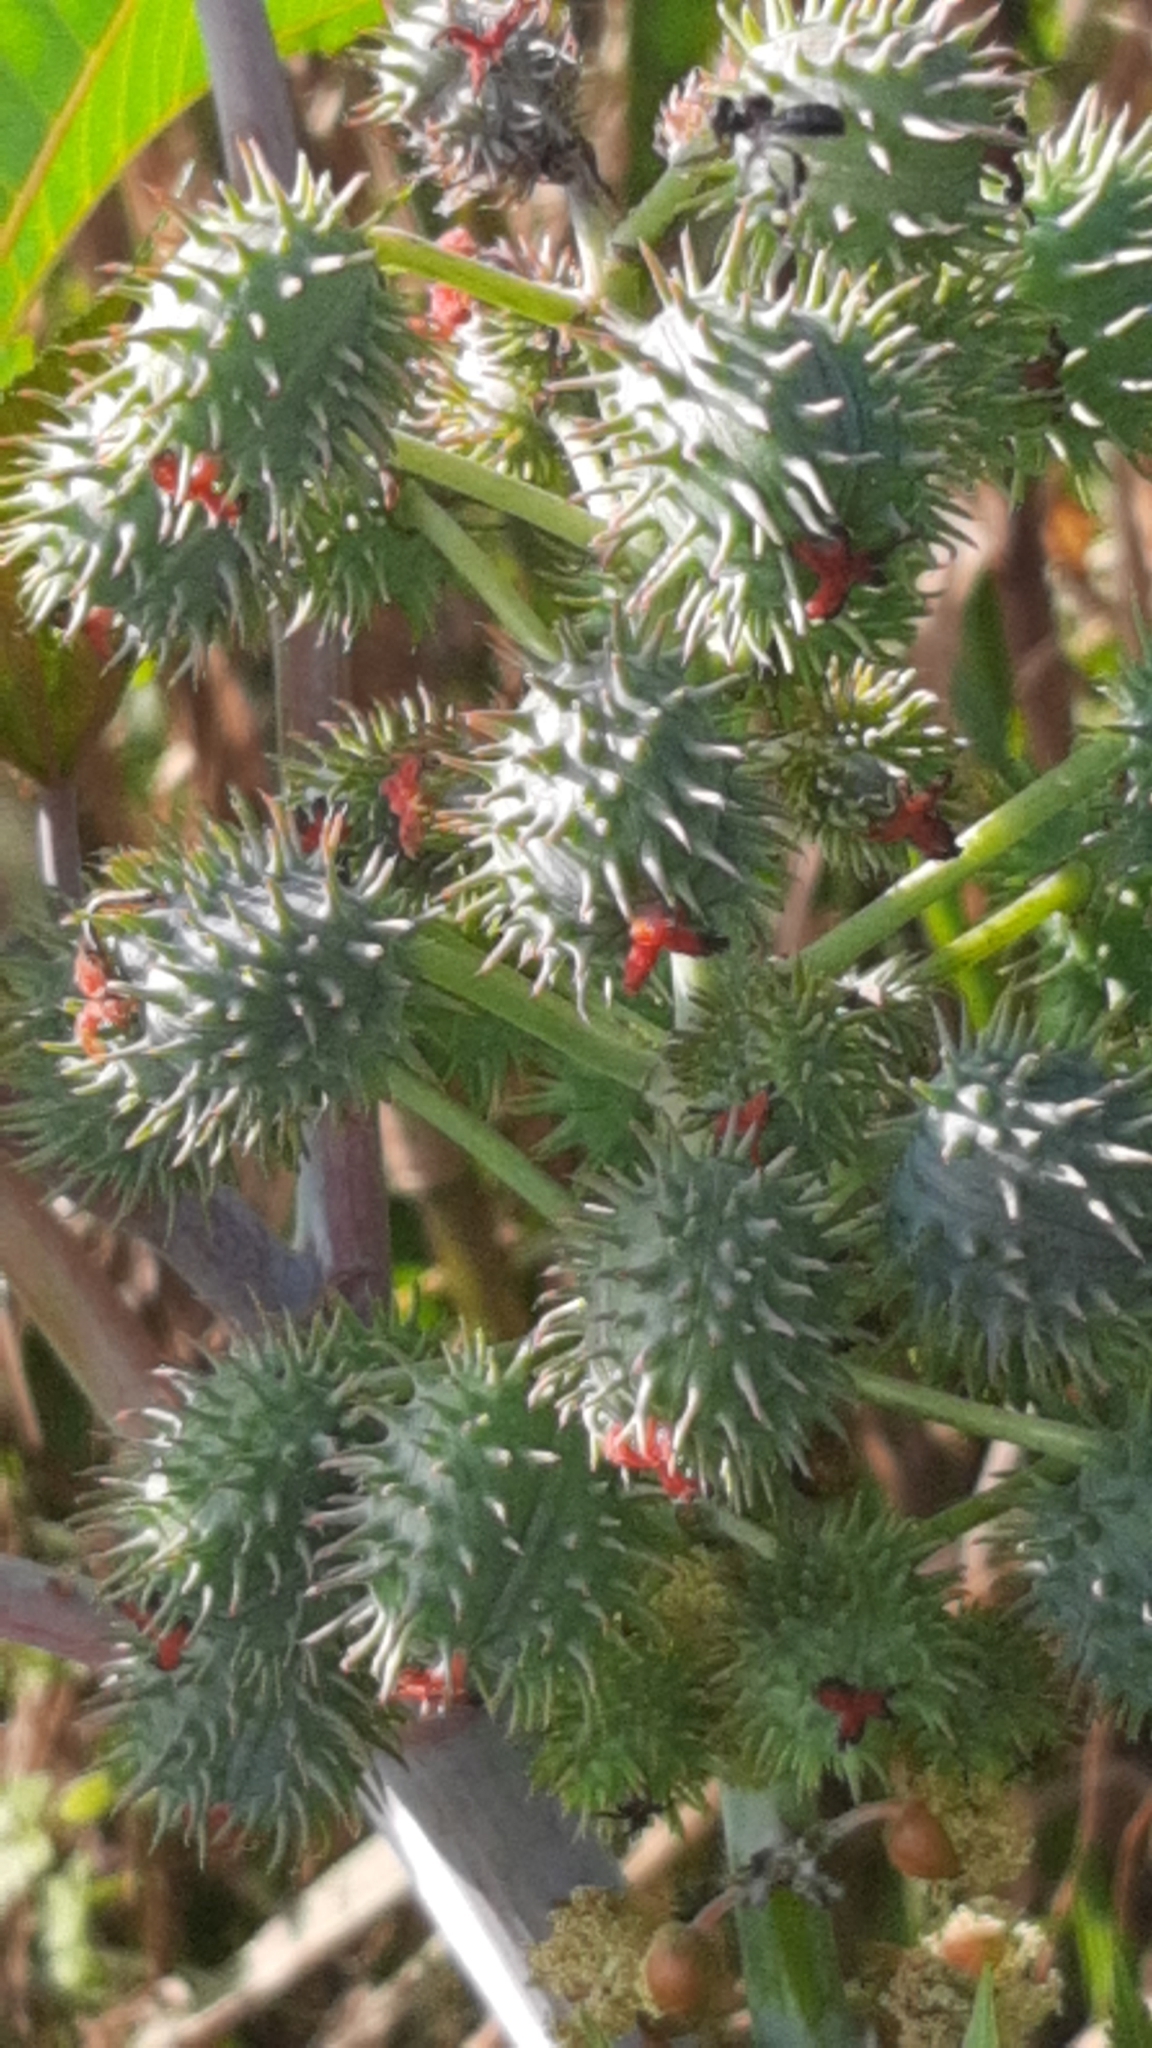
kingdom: Plantae
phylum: Tracheophyta
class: Magnoliopsida
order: Malpighiales
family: Euphorbiaceae
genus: Ricinus
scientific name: Ricinus communis
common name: Castor-oil-plant
